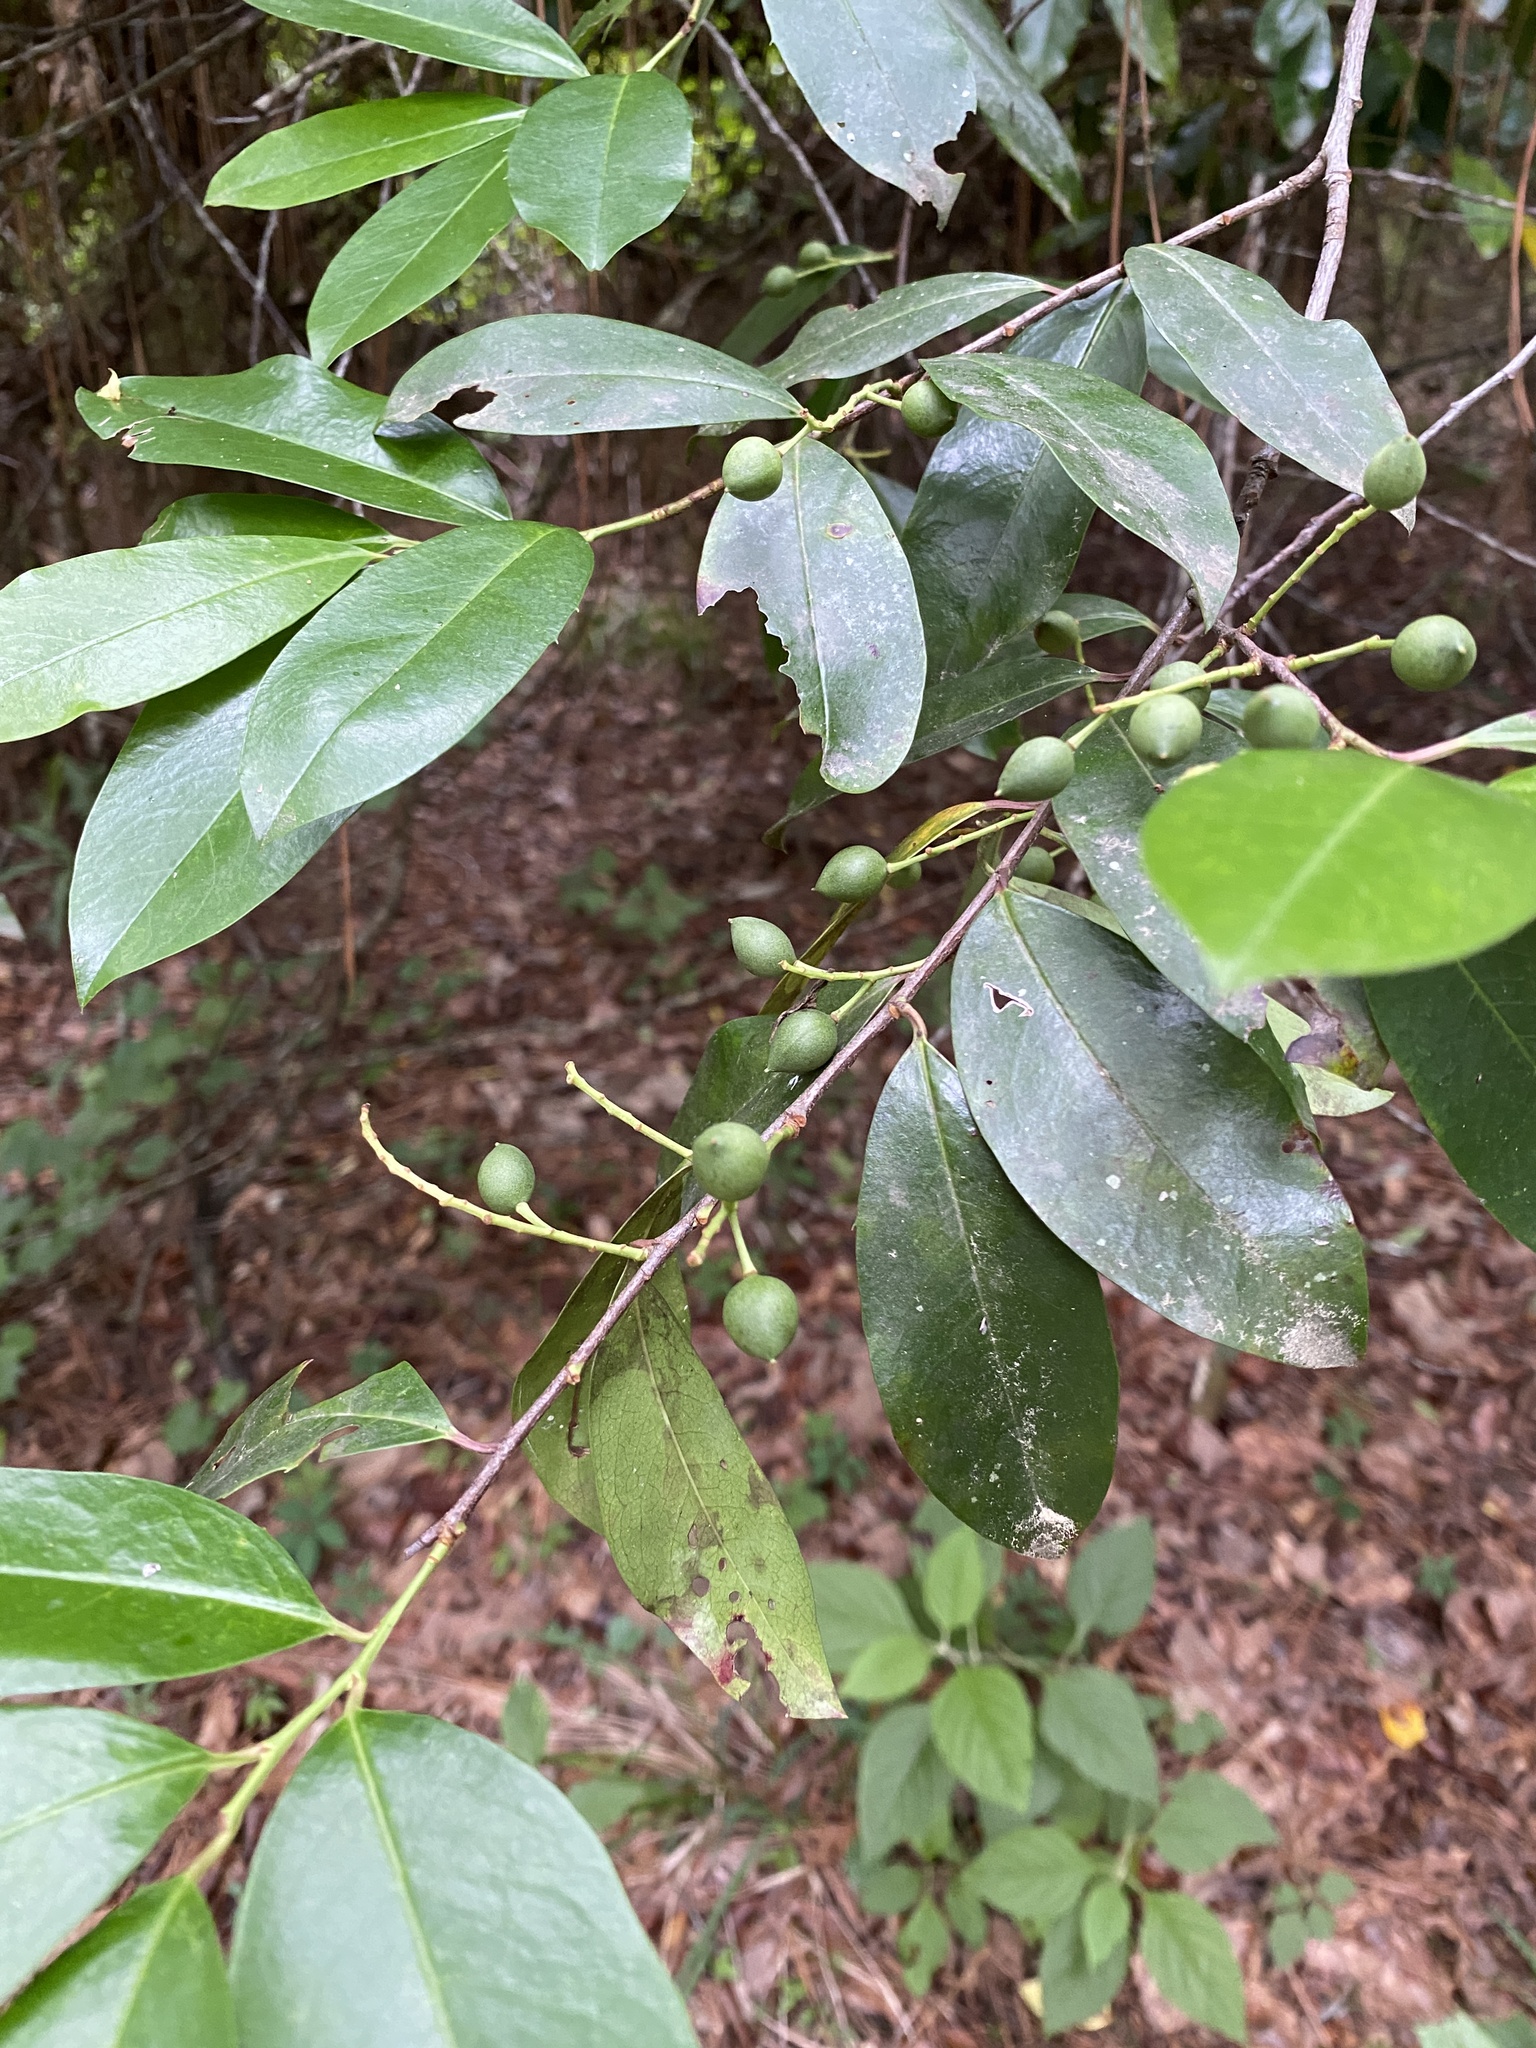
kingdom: Plantae
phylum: Tracheophyta
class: Magnoliopsida
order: Rosales
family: Rosaceae
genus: Prunus
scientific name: Prunus caroliniana
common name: Carolina laurel cherry
